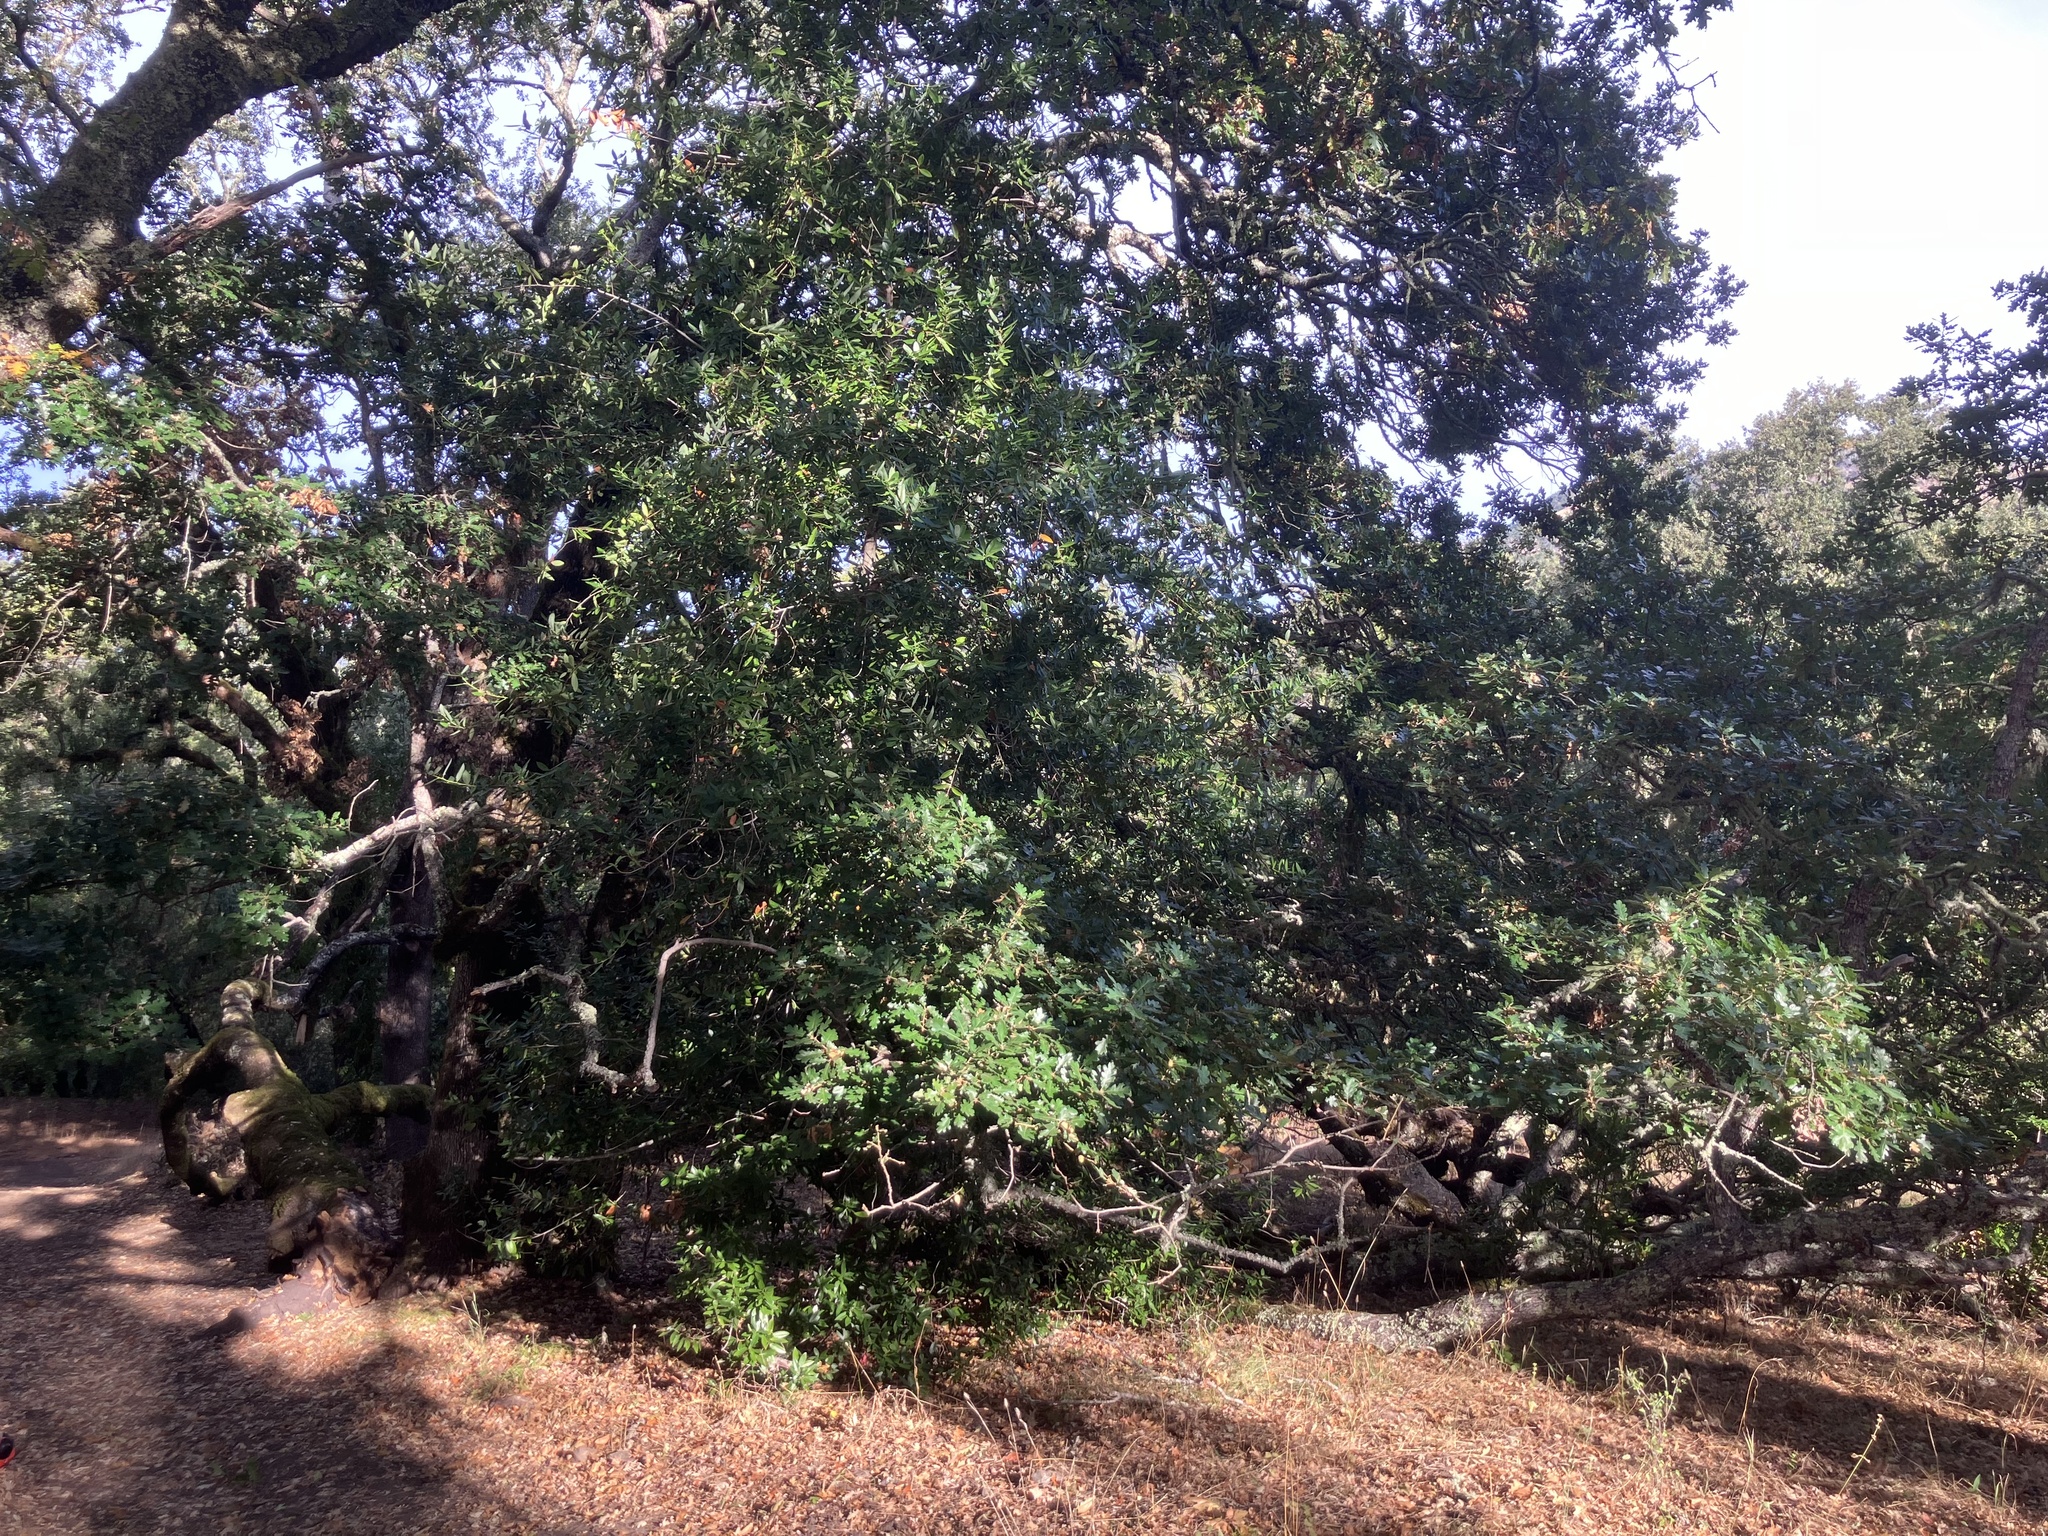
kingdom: Plantae
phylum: Tracheophyta
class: Magnoliopsida
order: Fagales
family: Fagaceae
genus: Quercus
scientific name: Quercus garryana
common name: Garry oak
